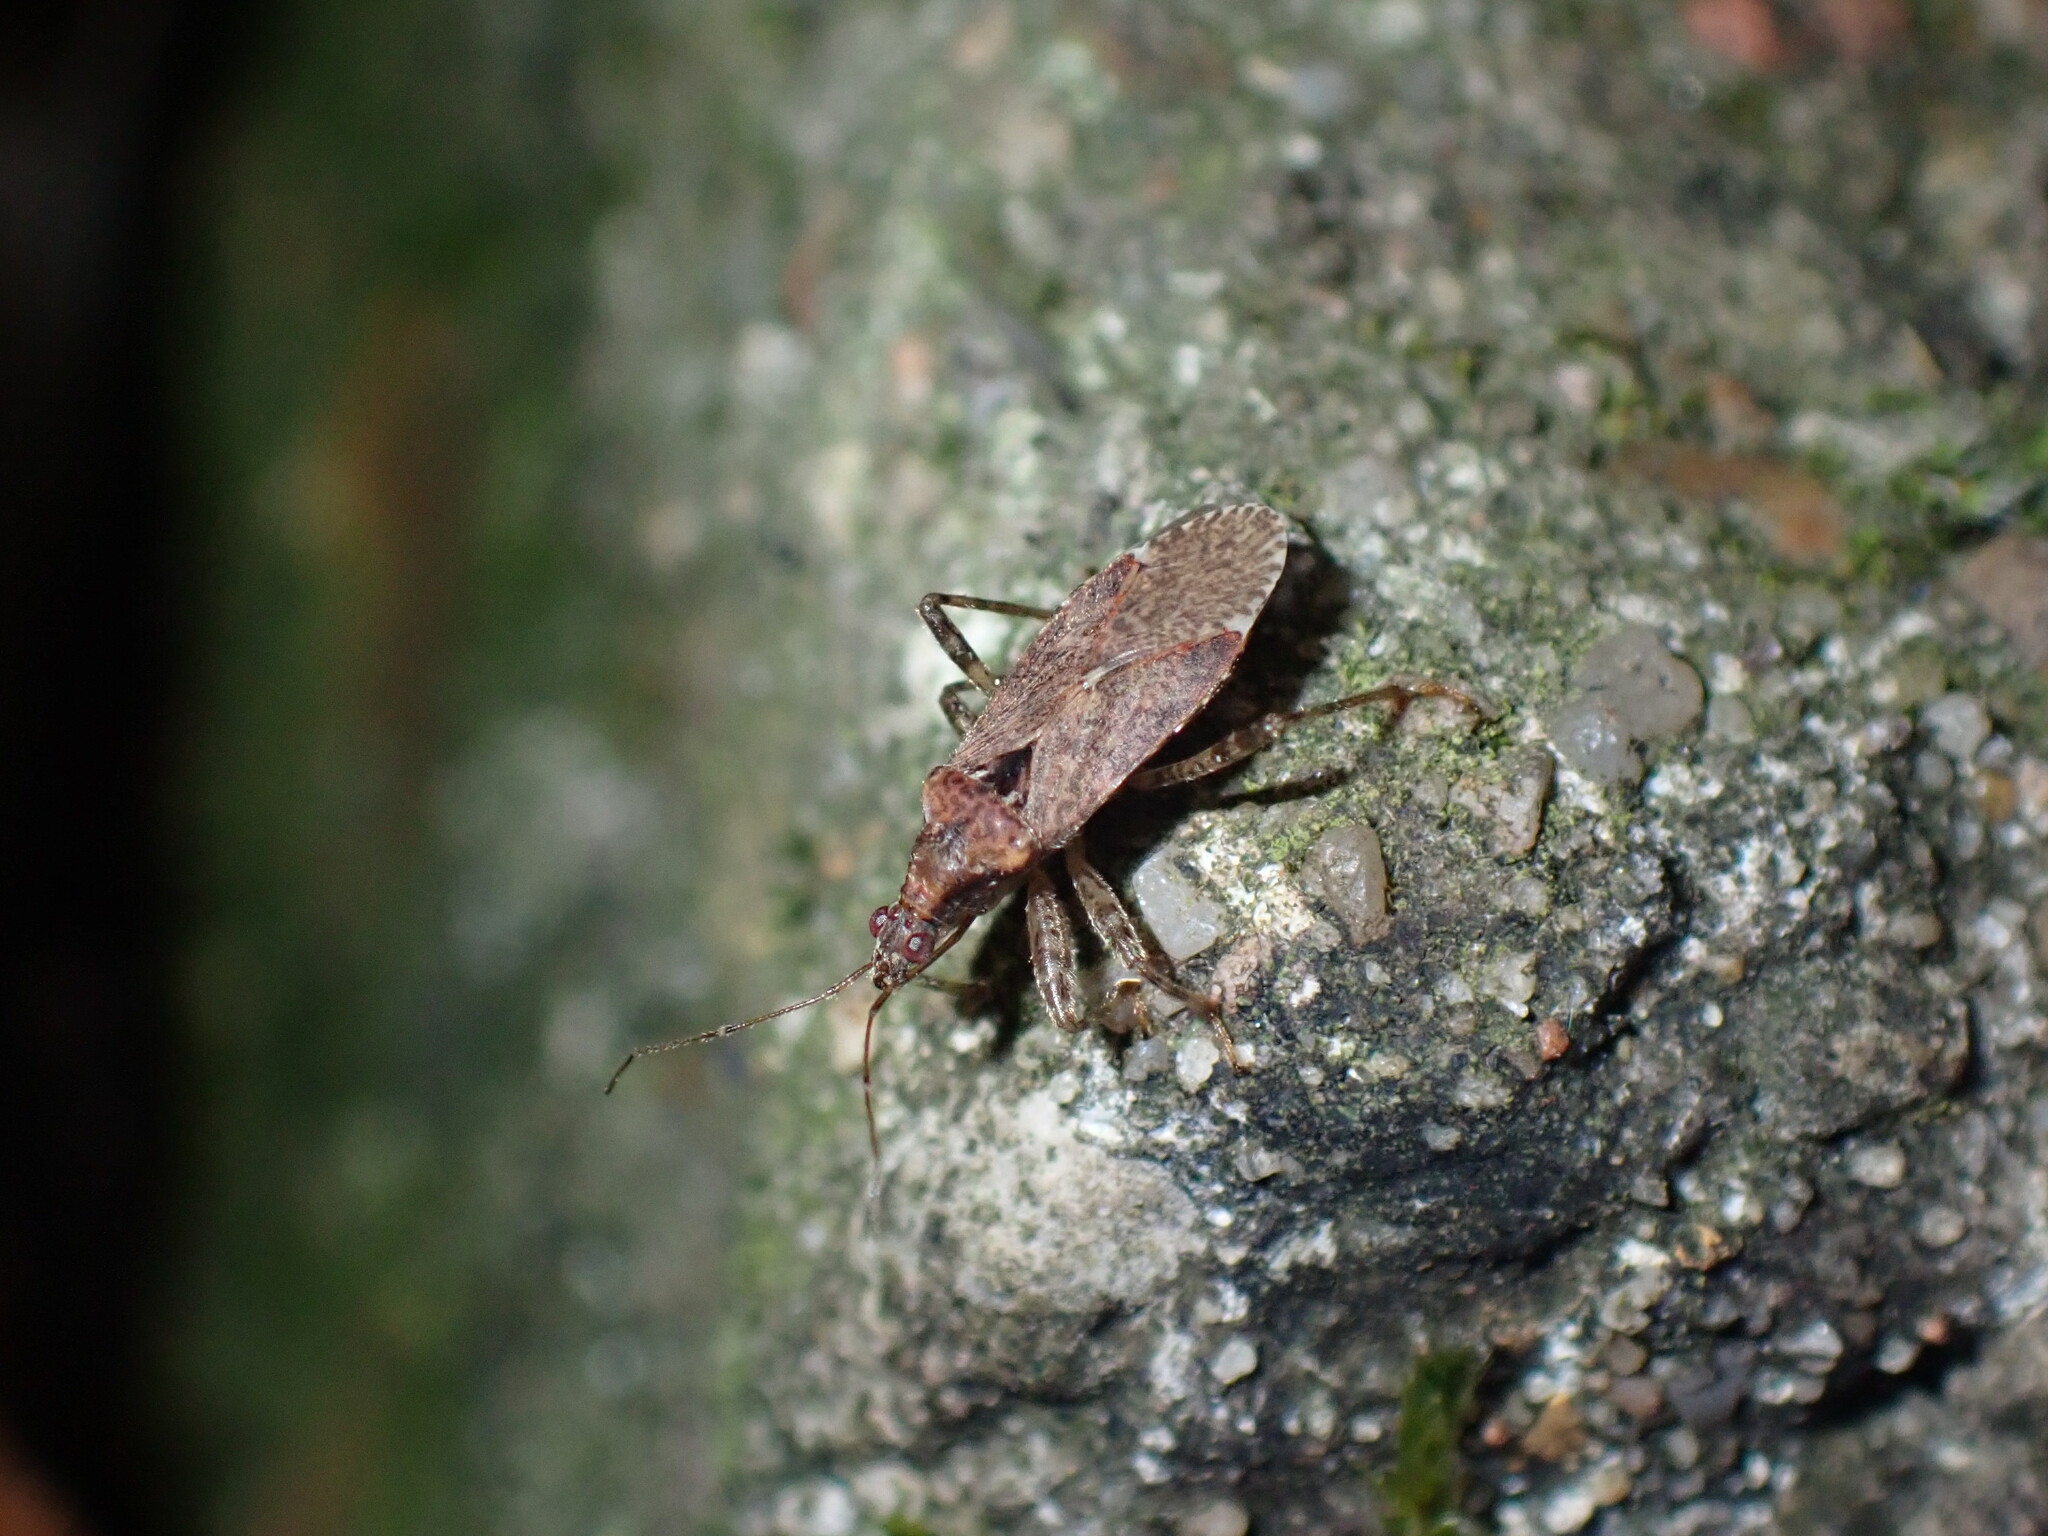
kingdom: Animalia
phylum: Arthropoda
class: Insecta
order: Hemiptera
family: Nabidae
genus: Himacerus
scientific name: Himacerus mirmicoides
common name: Ant damsel bug
